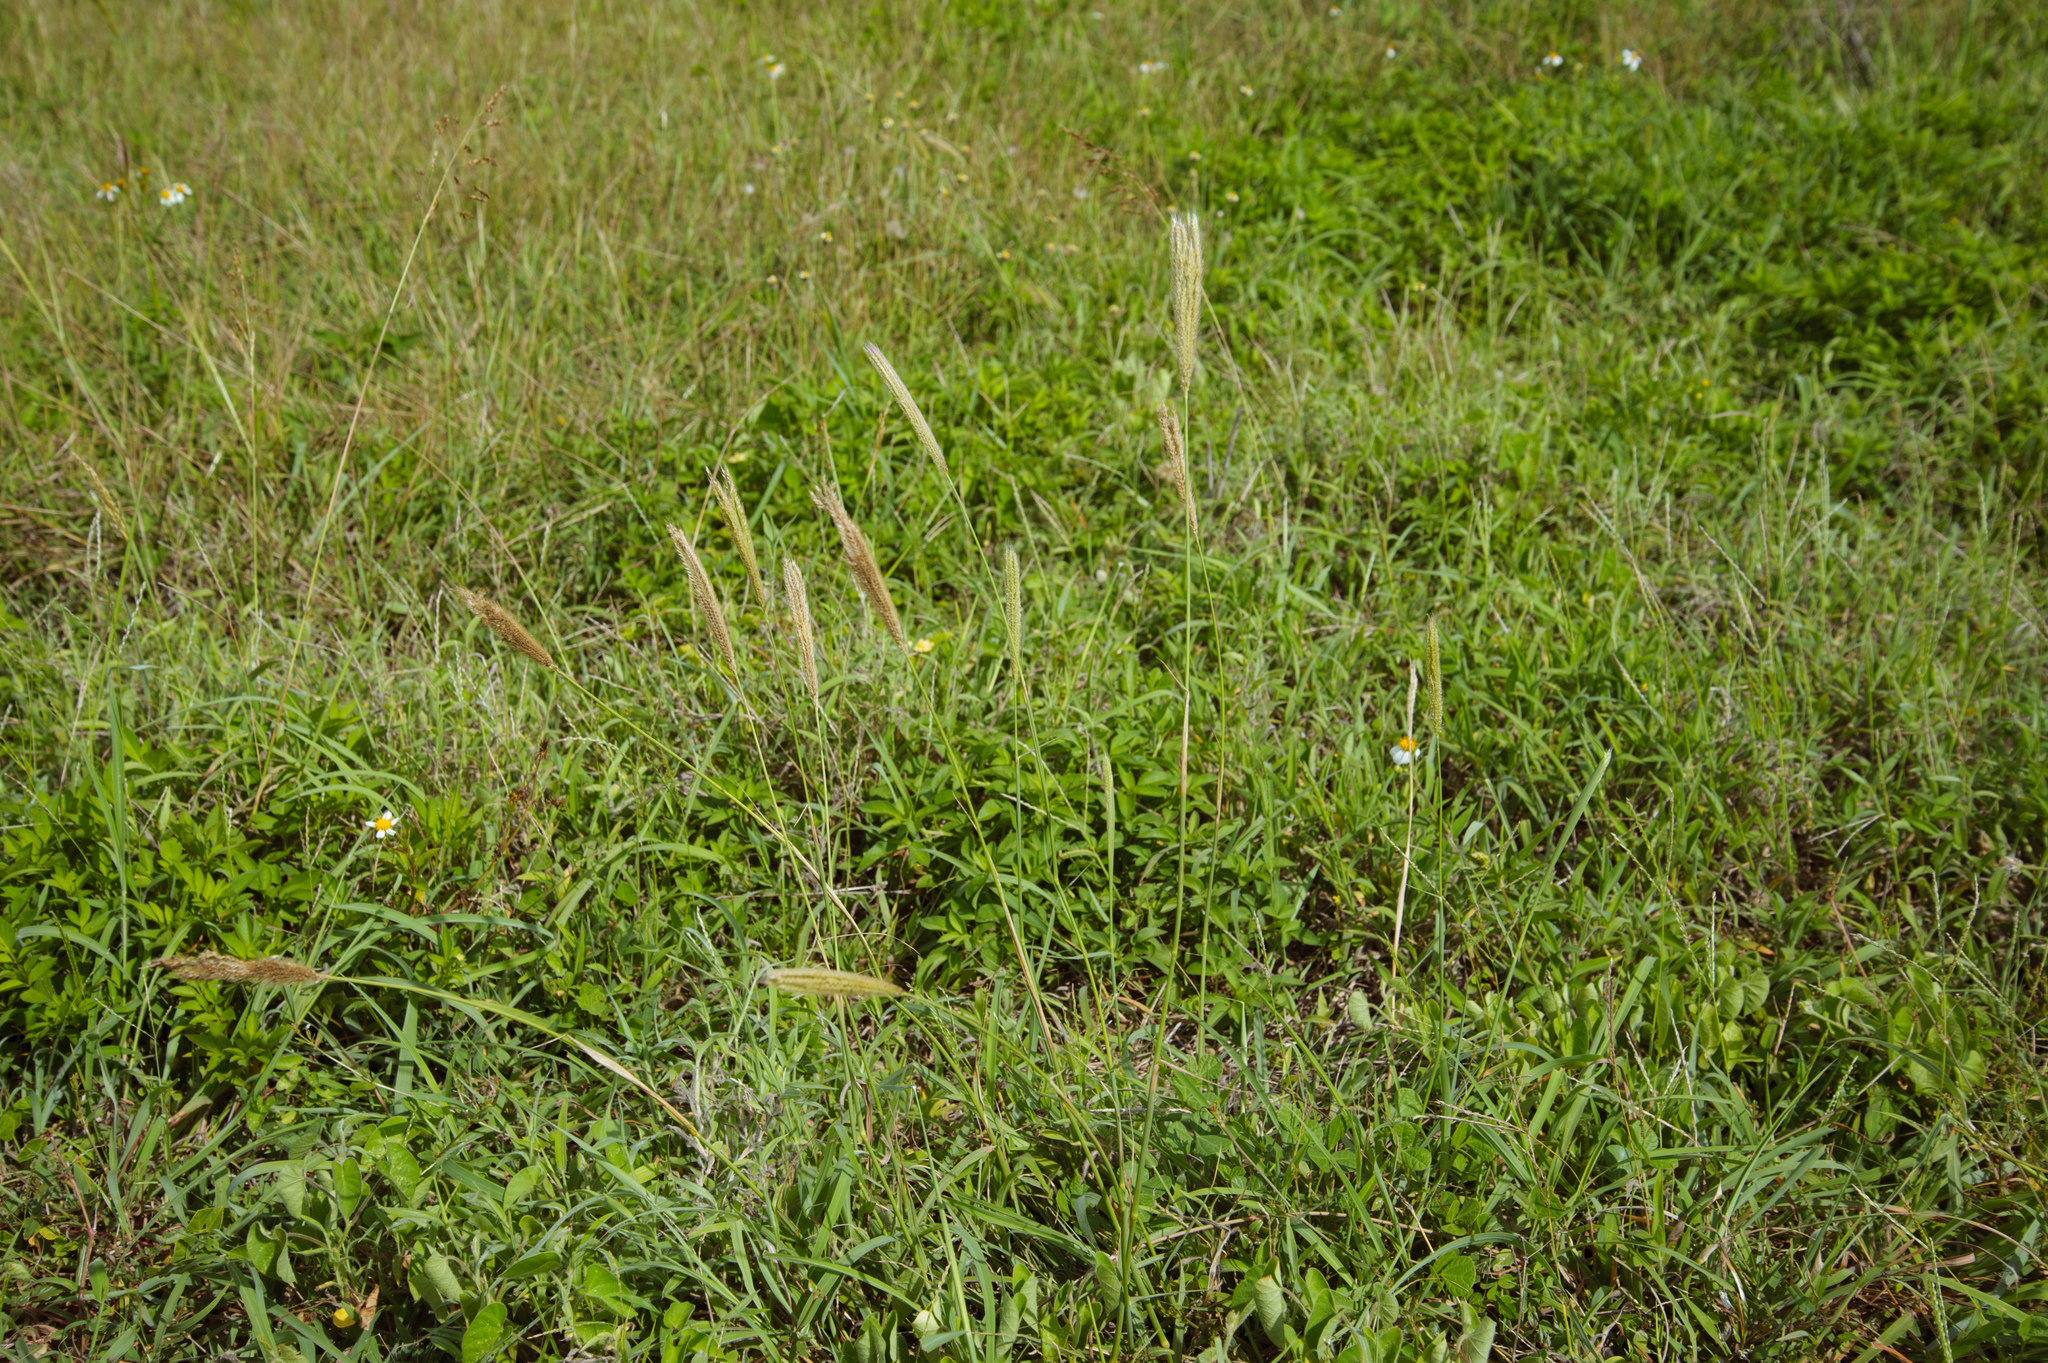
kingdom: Plantae
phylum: Tracheophyta
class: Liliopsida
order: Poales
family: Poaceae
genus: Chloris
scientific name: Chloris formosana
